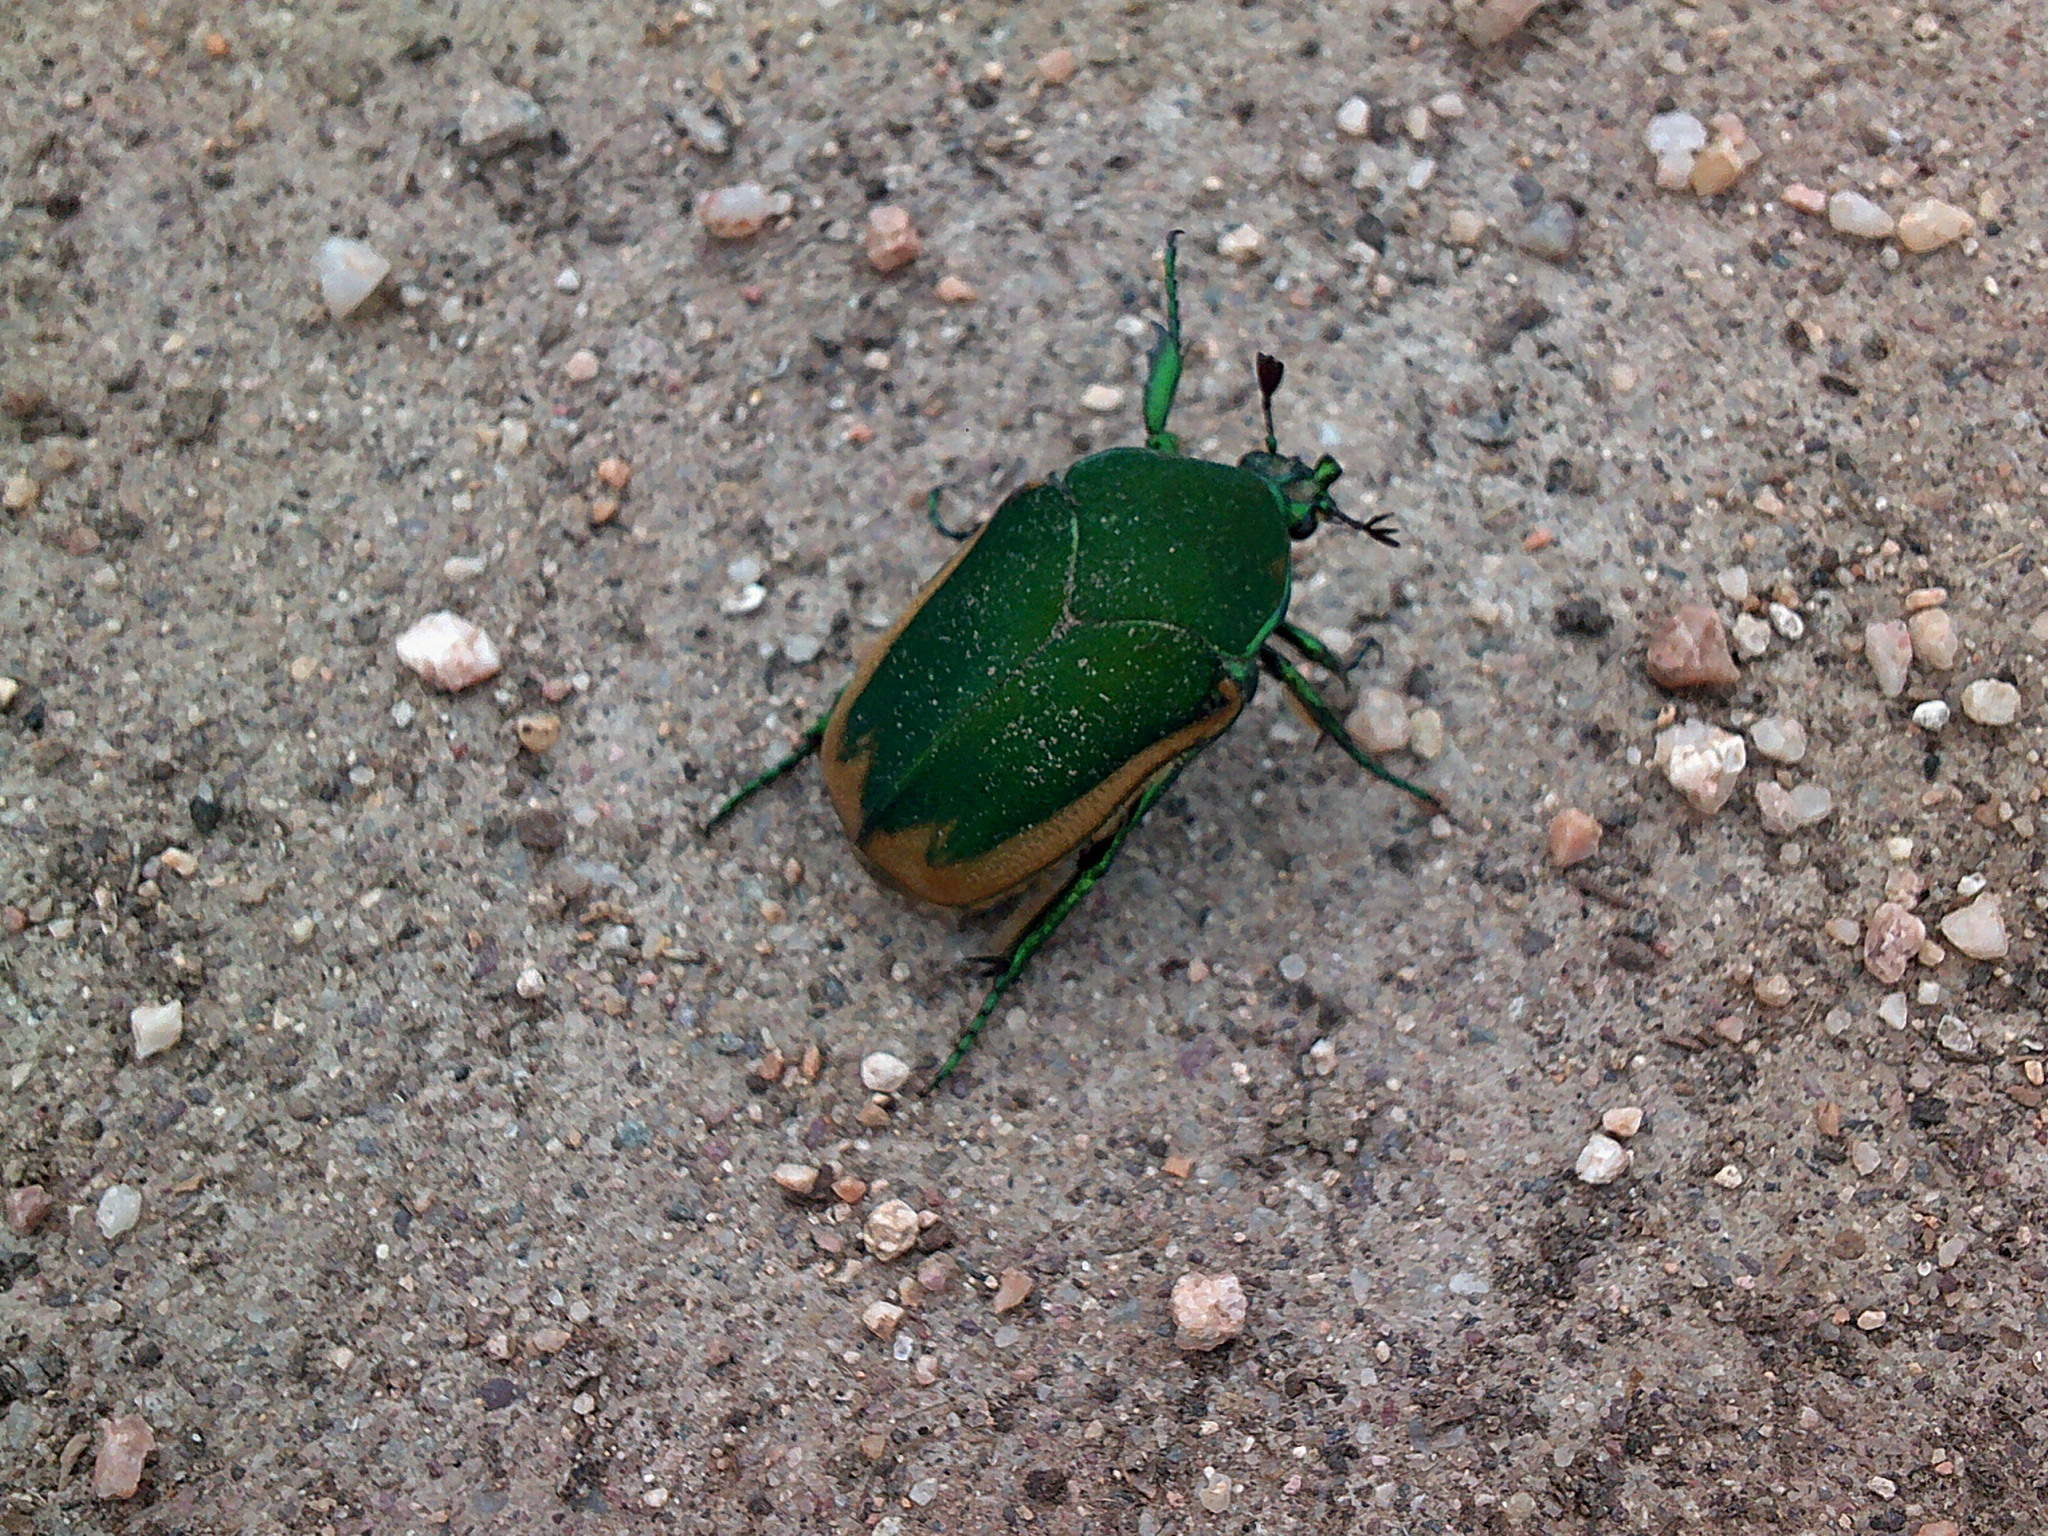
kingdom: Animalia
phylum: Arthropoda
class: Insecta
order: Coleoptera
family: Scarabaeidae
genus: Cotinis
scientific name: Cotinis mutabilis
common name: Figeater beetle
